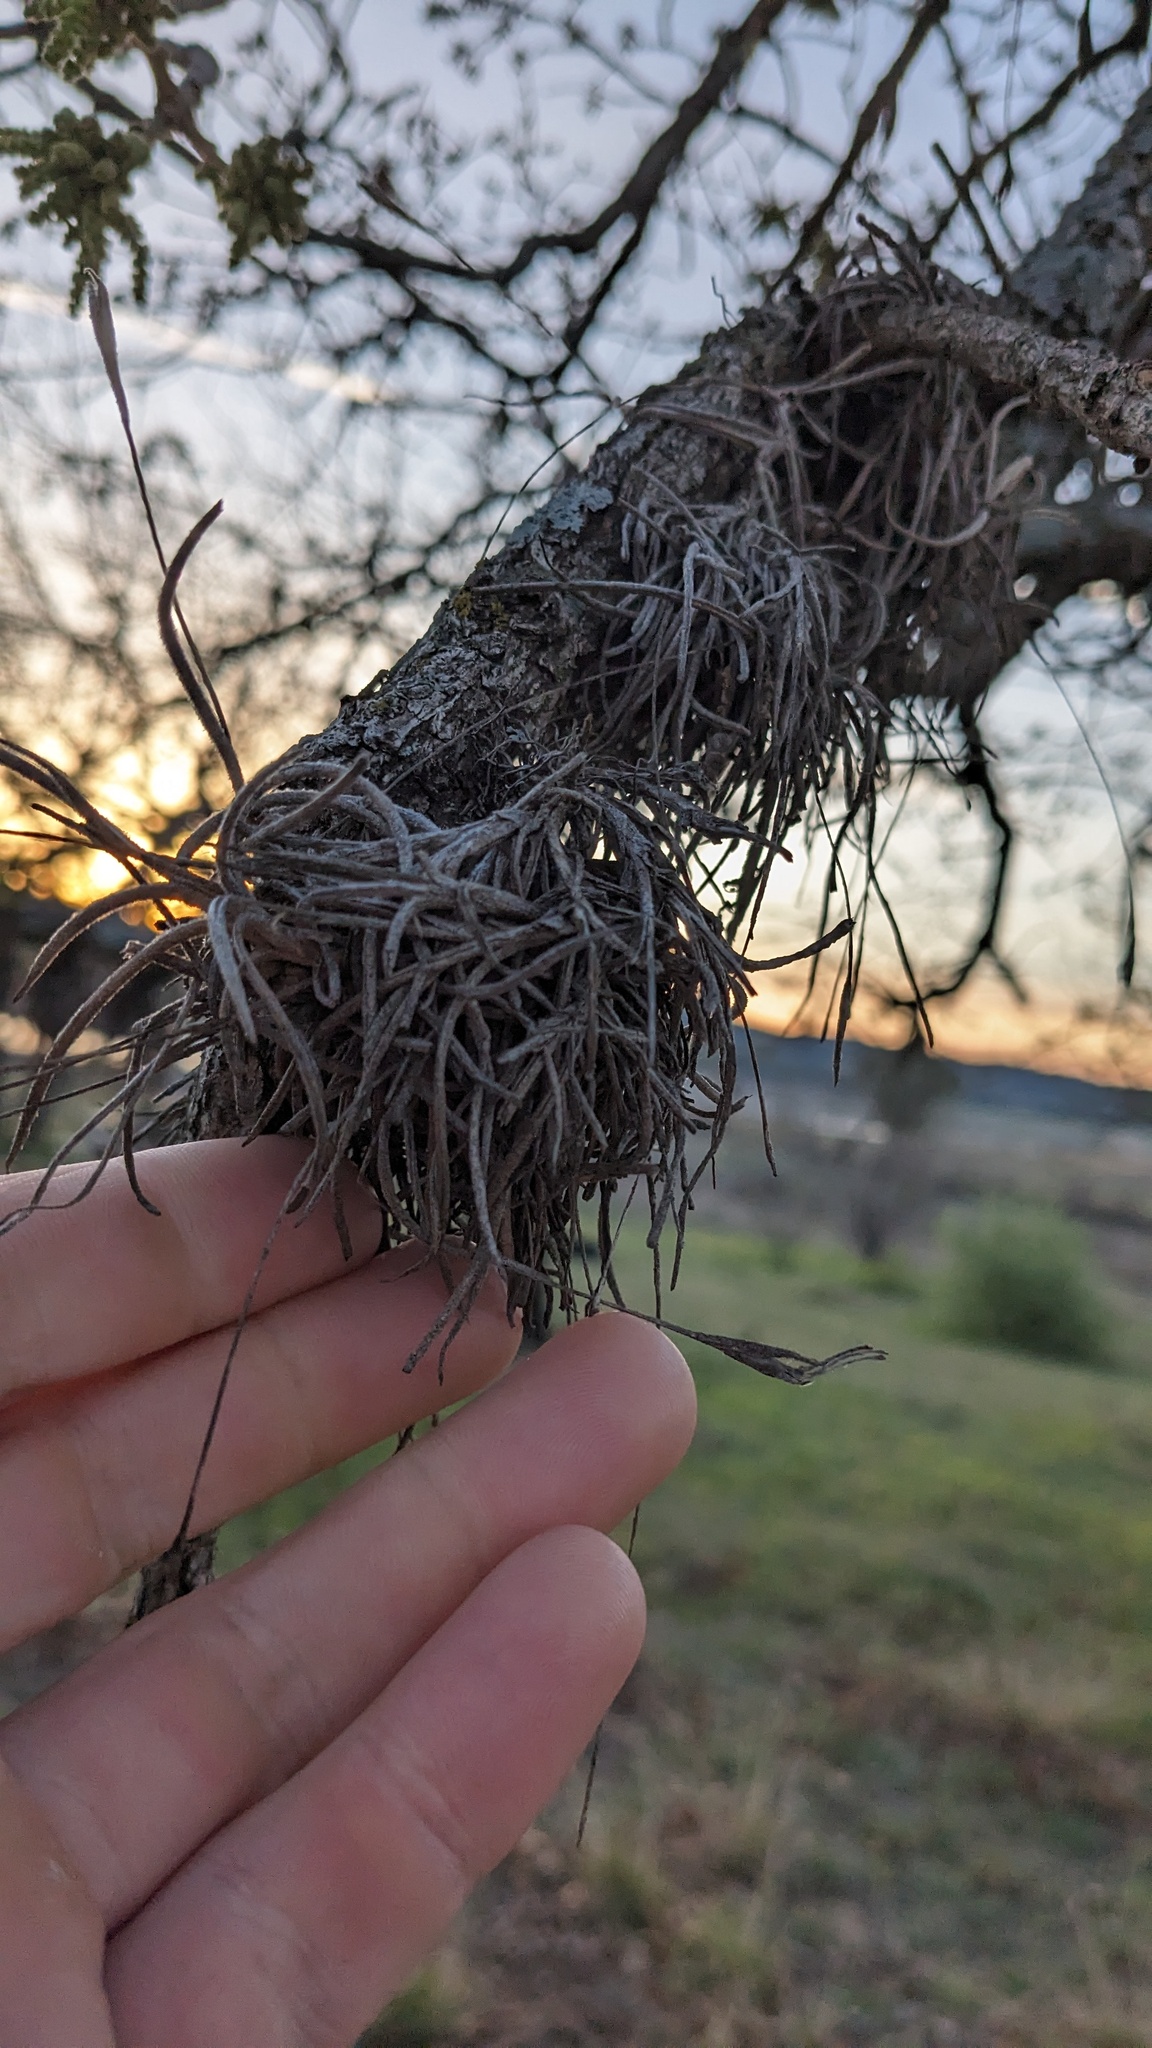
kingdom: Plantae
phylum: Tracheophyta
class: Liliopsida
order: Poales
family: Bromeliaceae
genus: Tillandsia
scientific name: Tillandsia recurvata
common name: Small ballmoss
